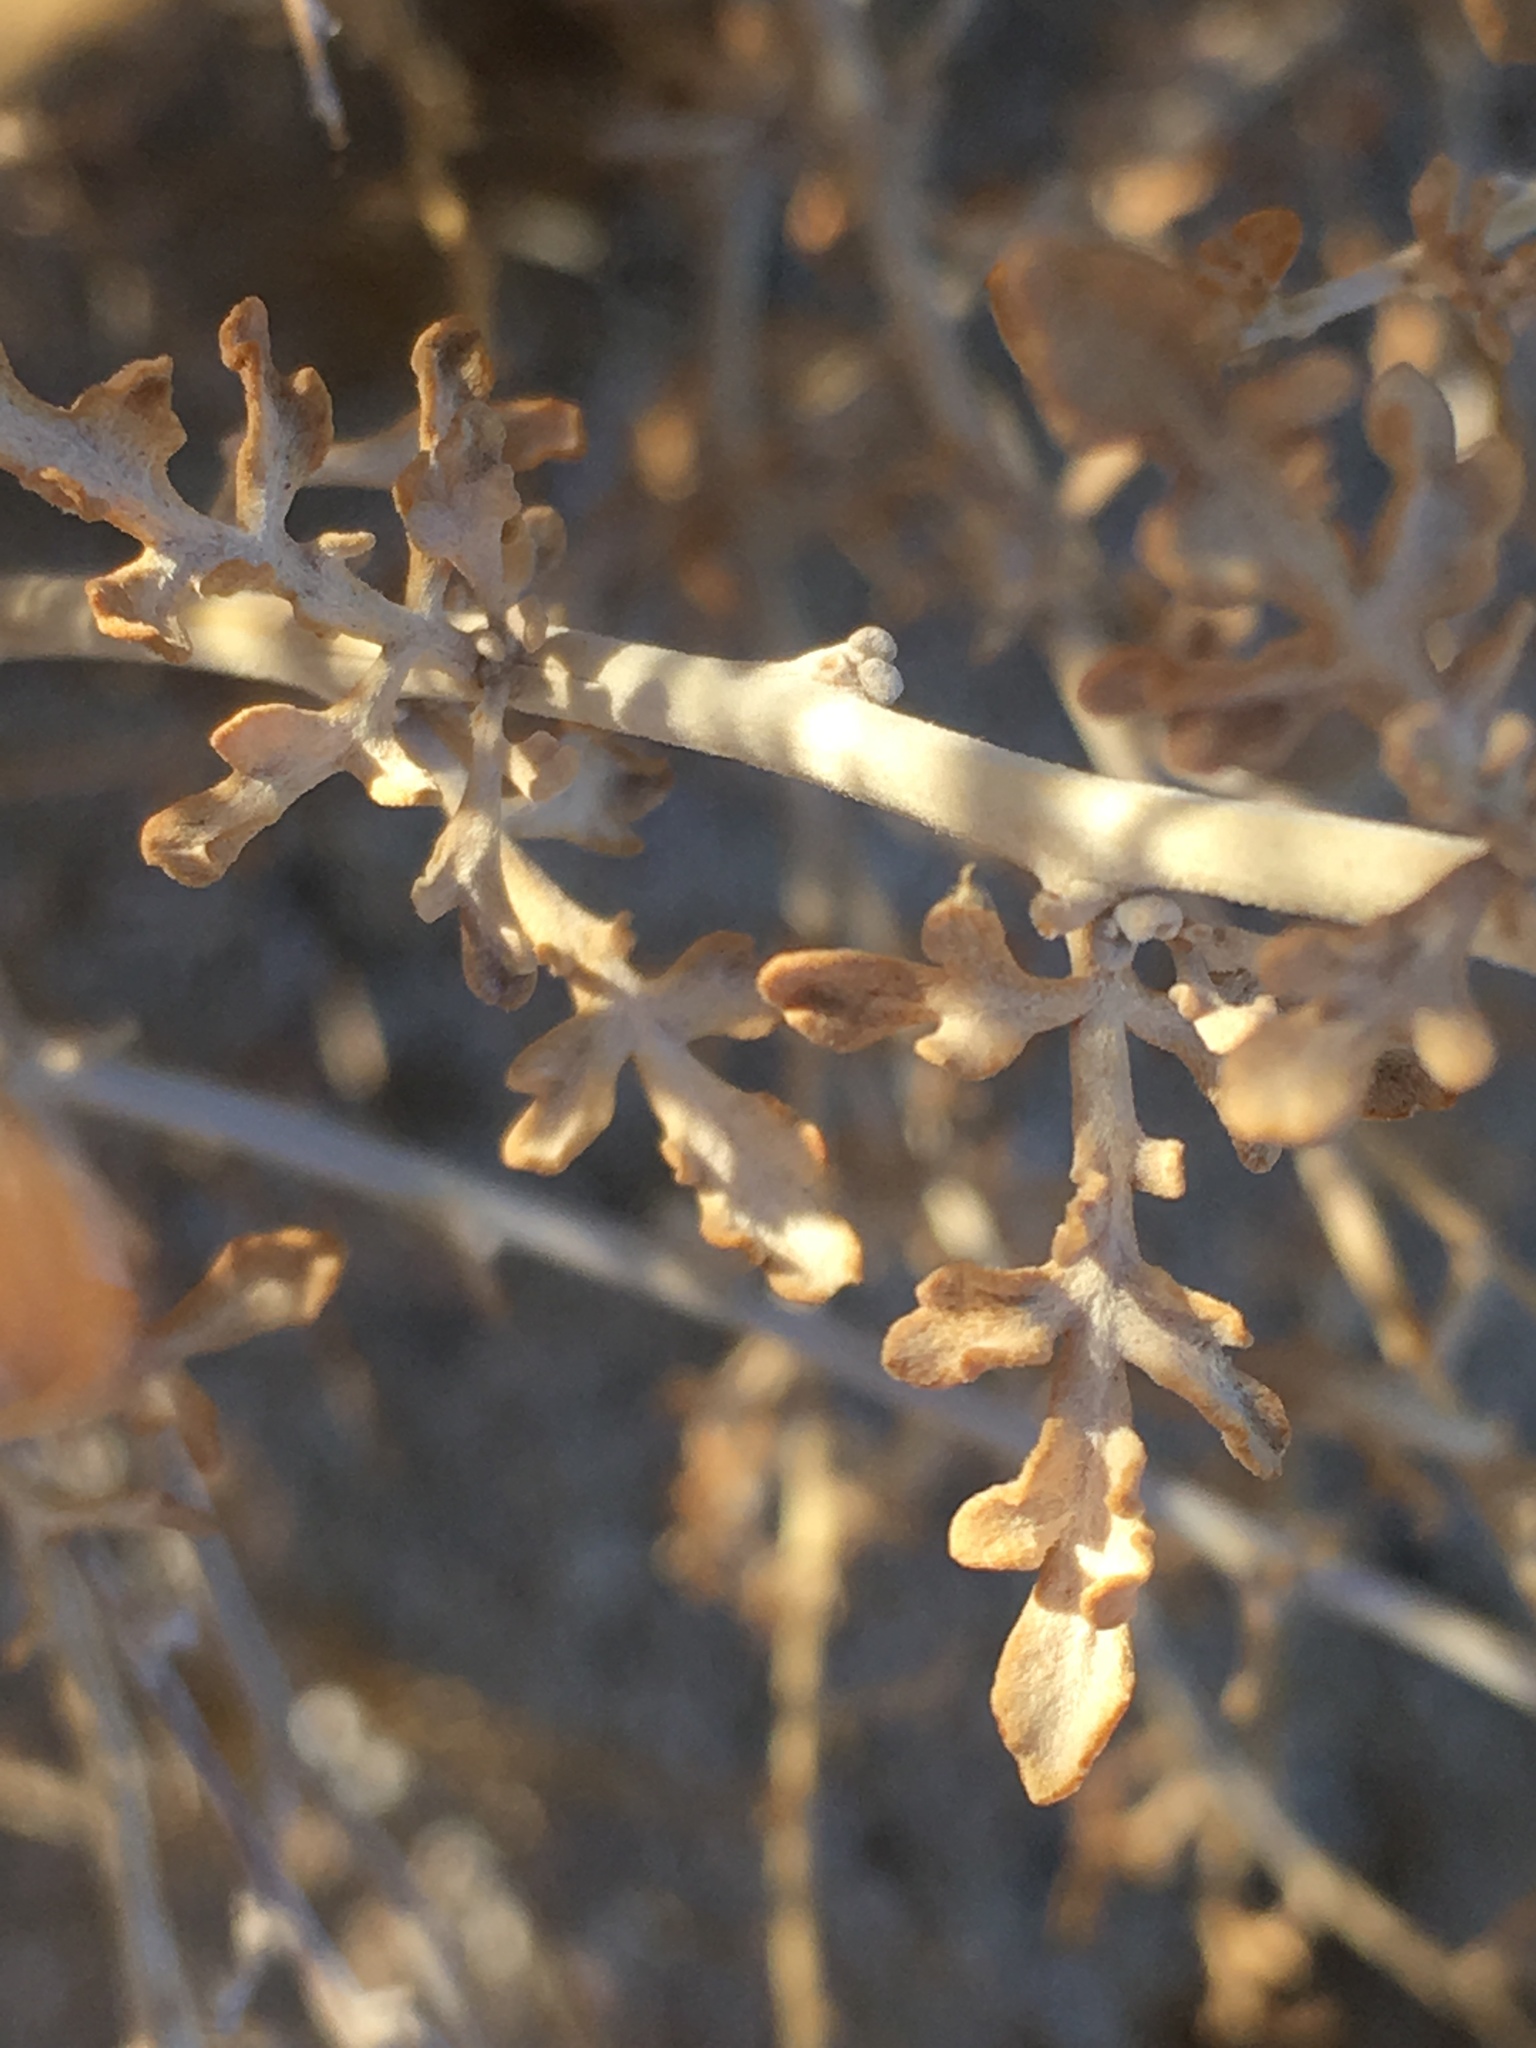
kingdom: Plantae
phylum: Tracheophyta
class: Magnoliopsida
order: Asterales
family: Asteraceae
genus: Ambrosia
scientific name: Ambrosia dumosa
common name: Bur-sage
